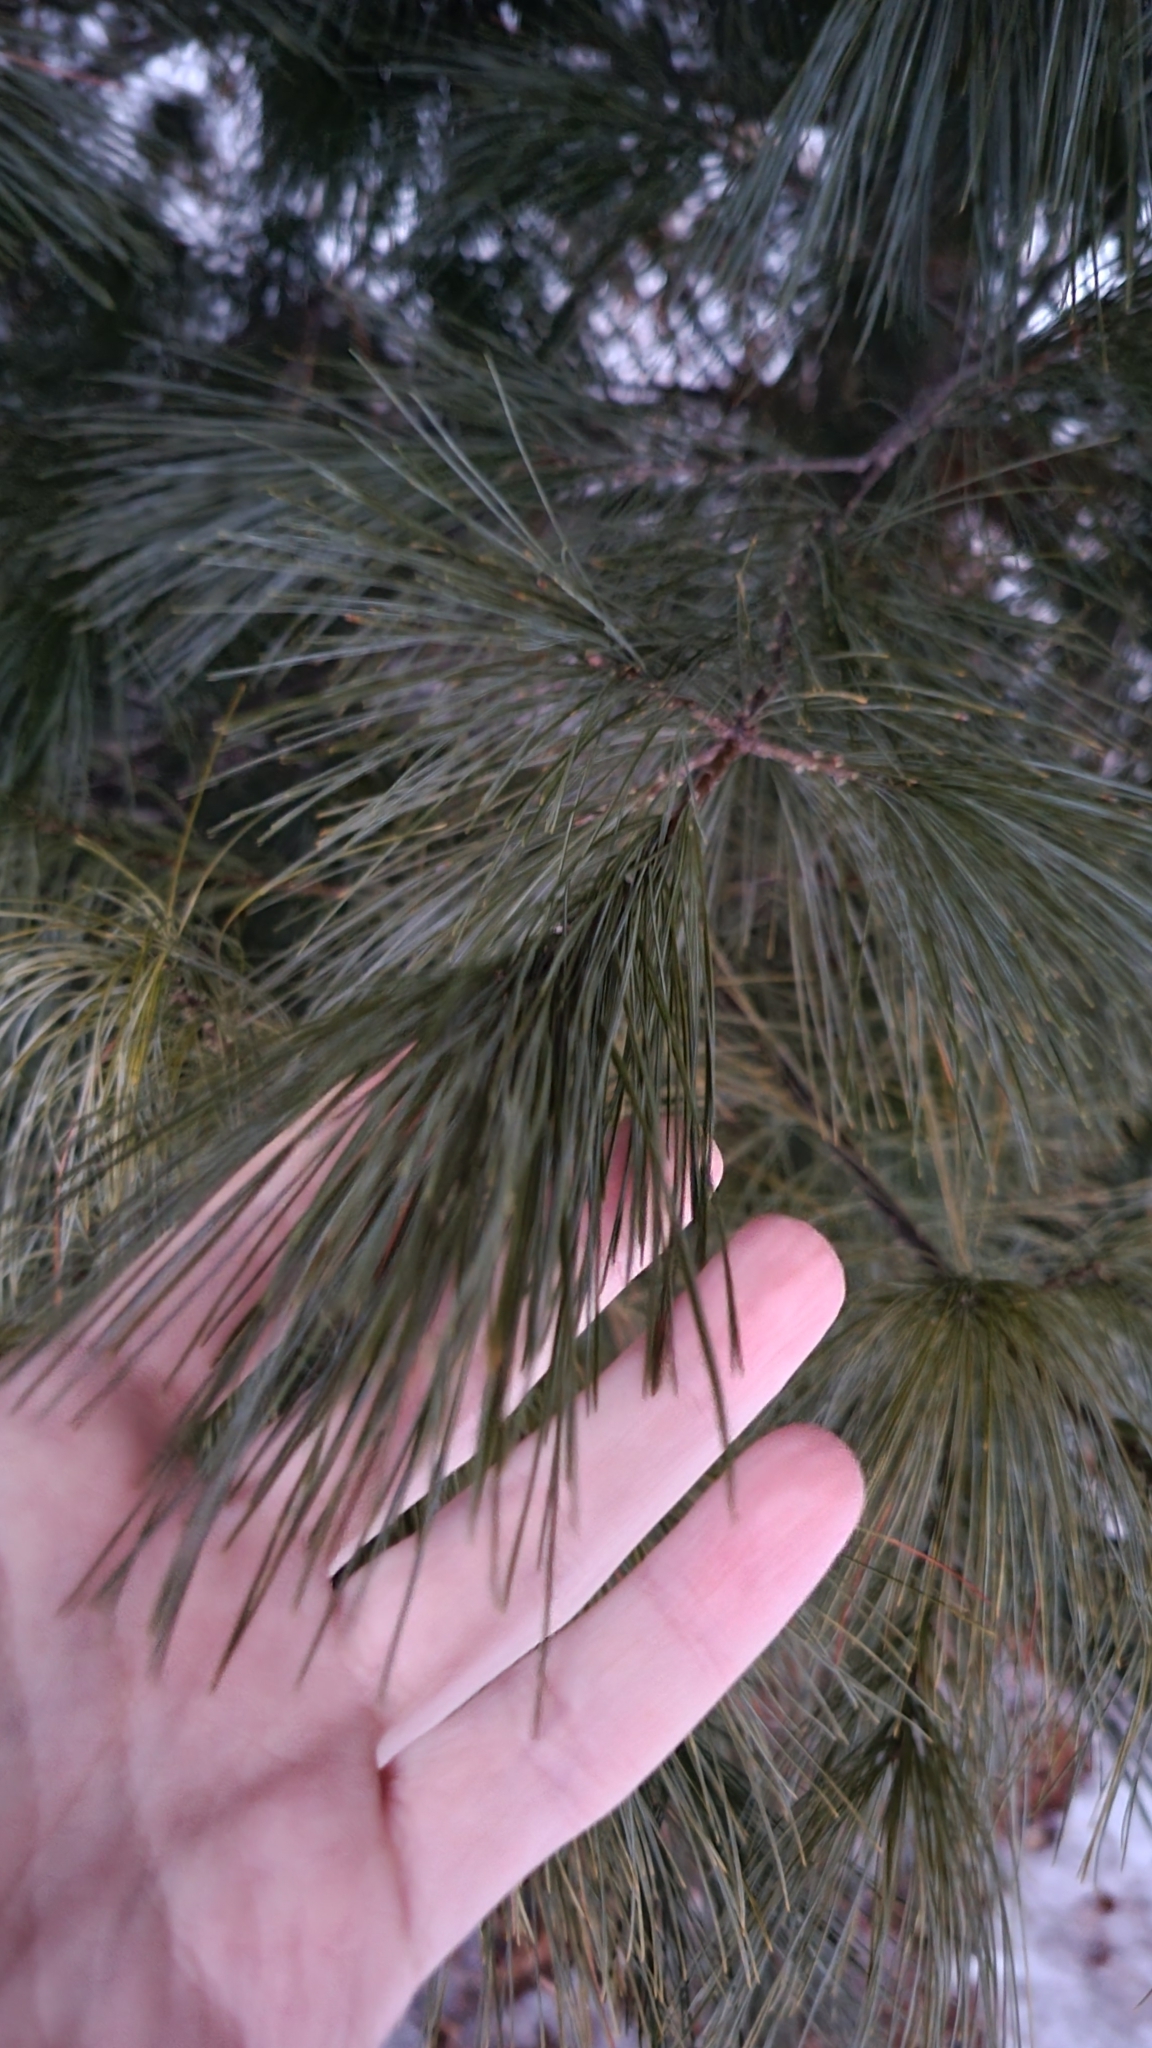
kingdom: Plantae
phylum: Tracheophyta
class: Pinopsida
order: Pinales
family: Pinaceae
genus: Pinus
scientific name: Pinus strobus
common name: Weymouth pine
